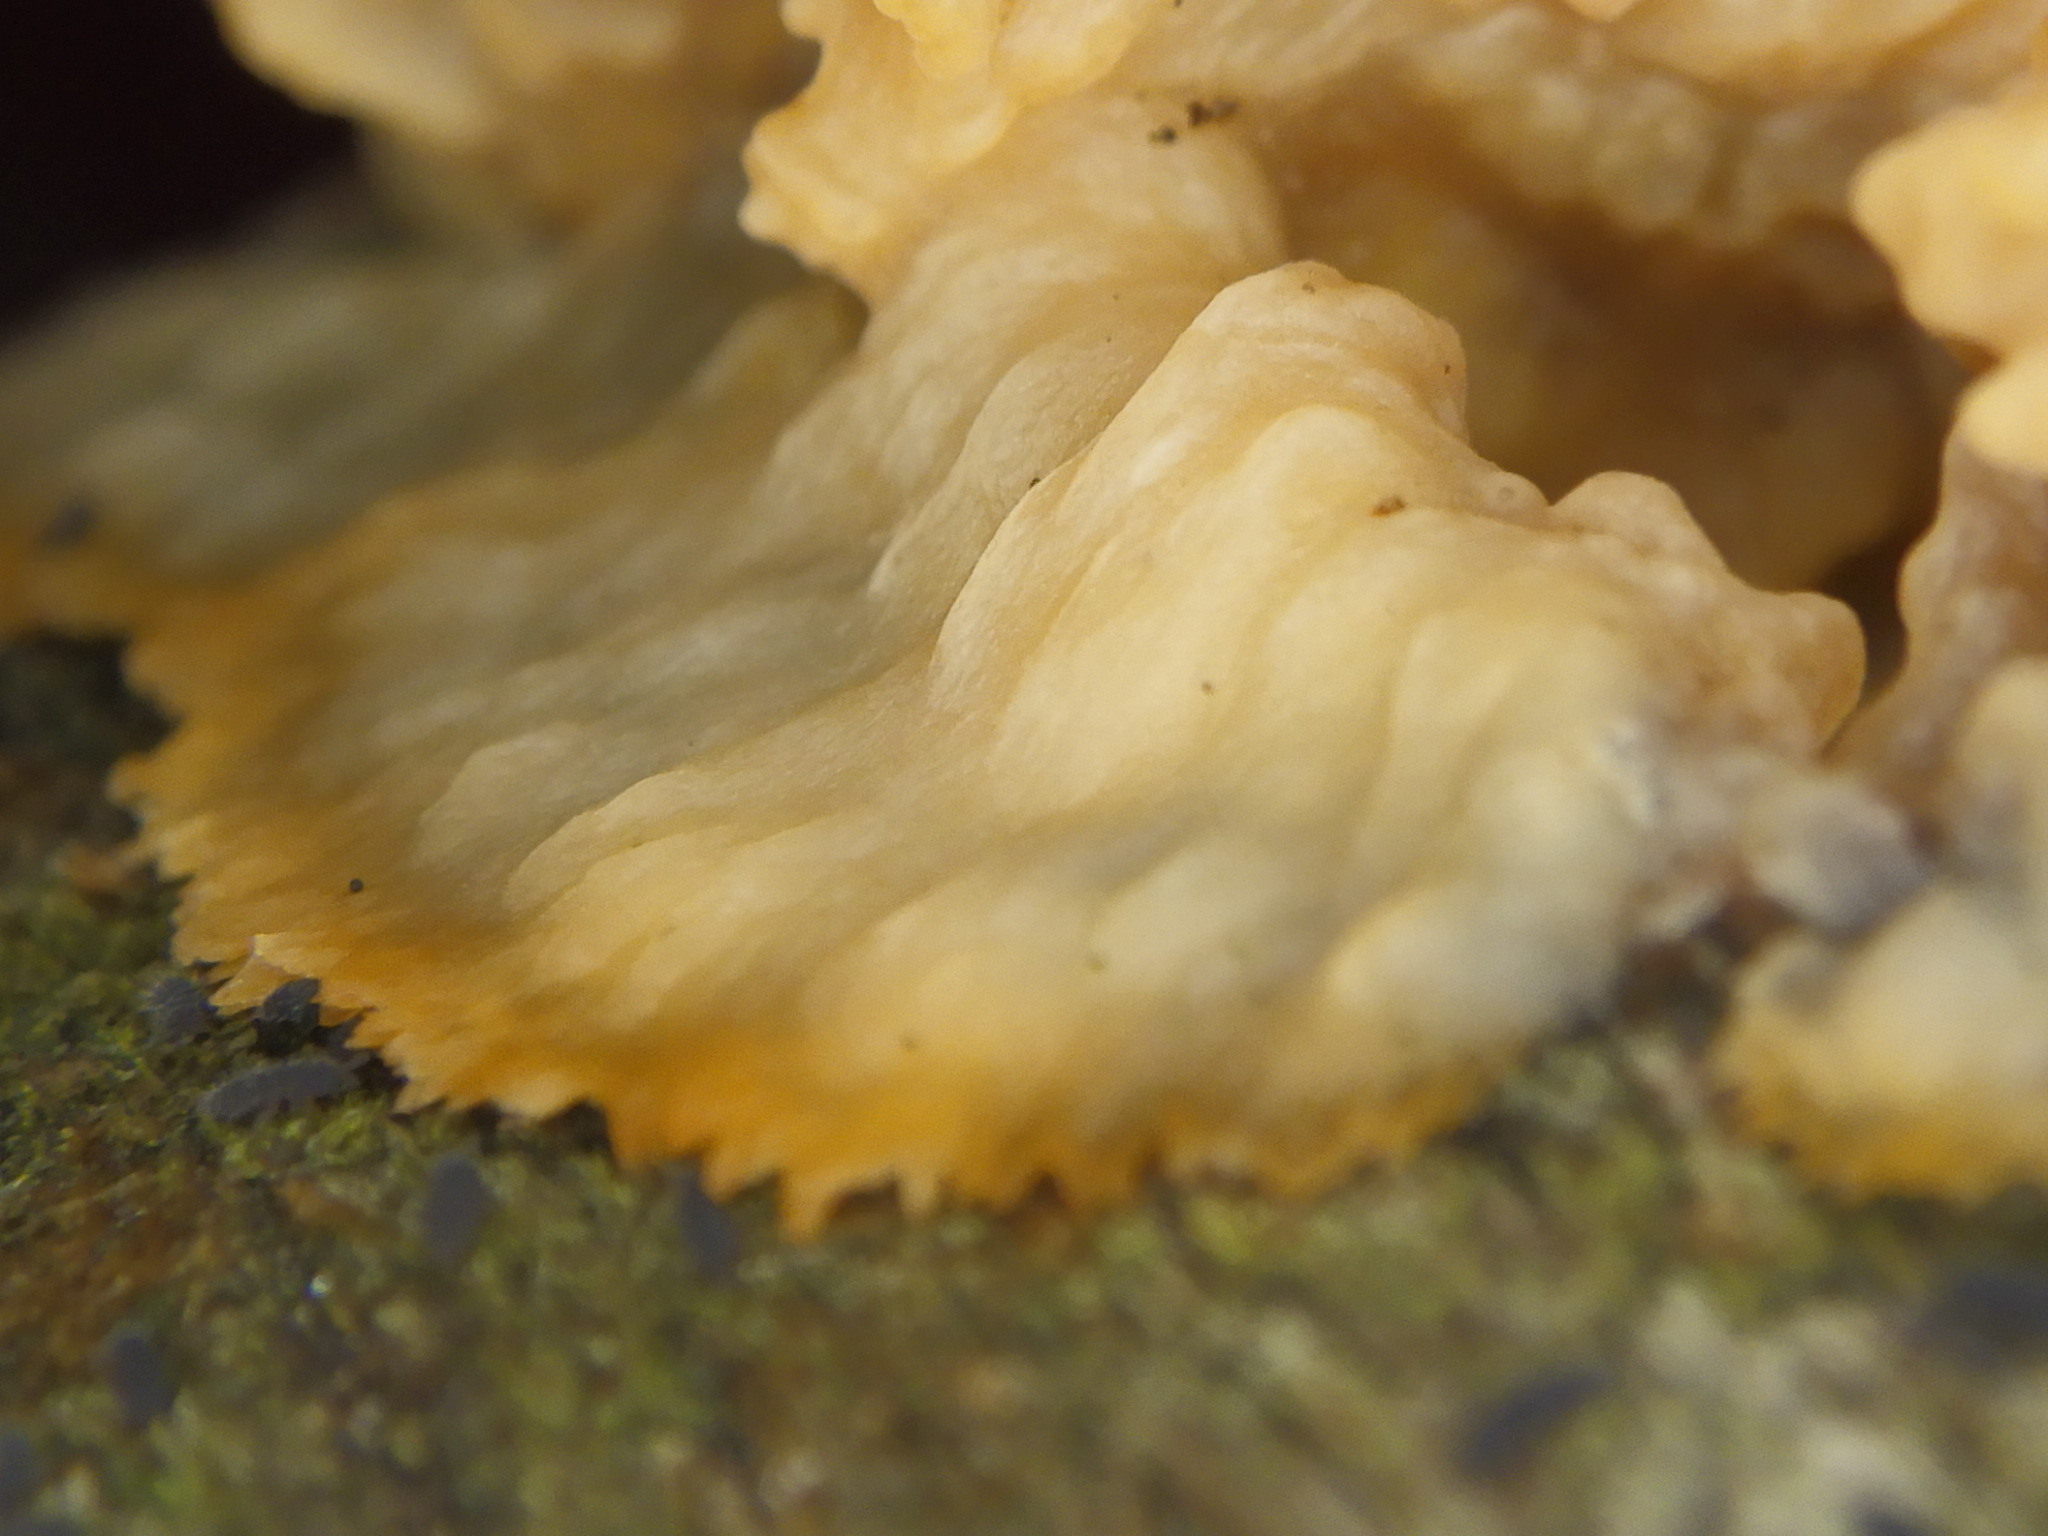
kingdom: Fungi
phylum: Basidiomycota
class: Agaricomycetes
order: Polyporales
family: Meruliaceae
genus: Phlebia
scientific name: Phlebia radiata
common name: Wrinkled crust
